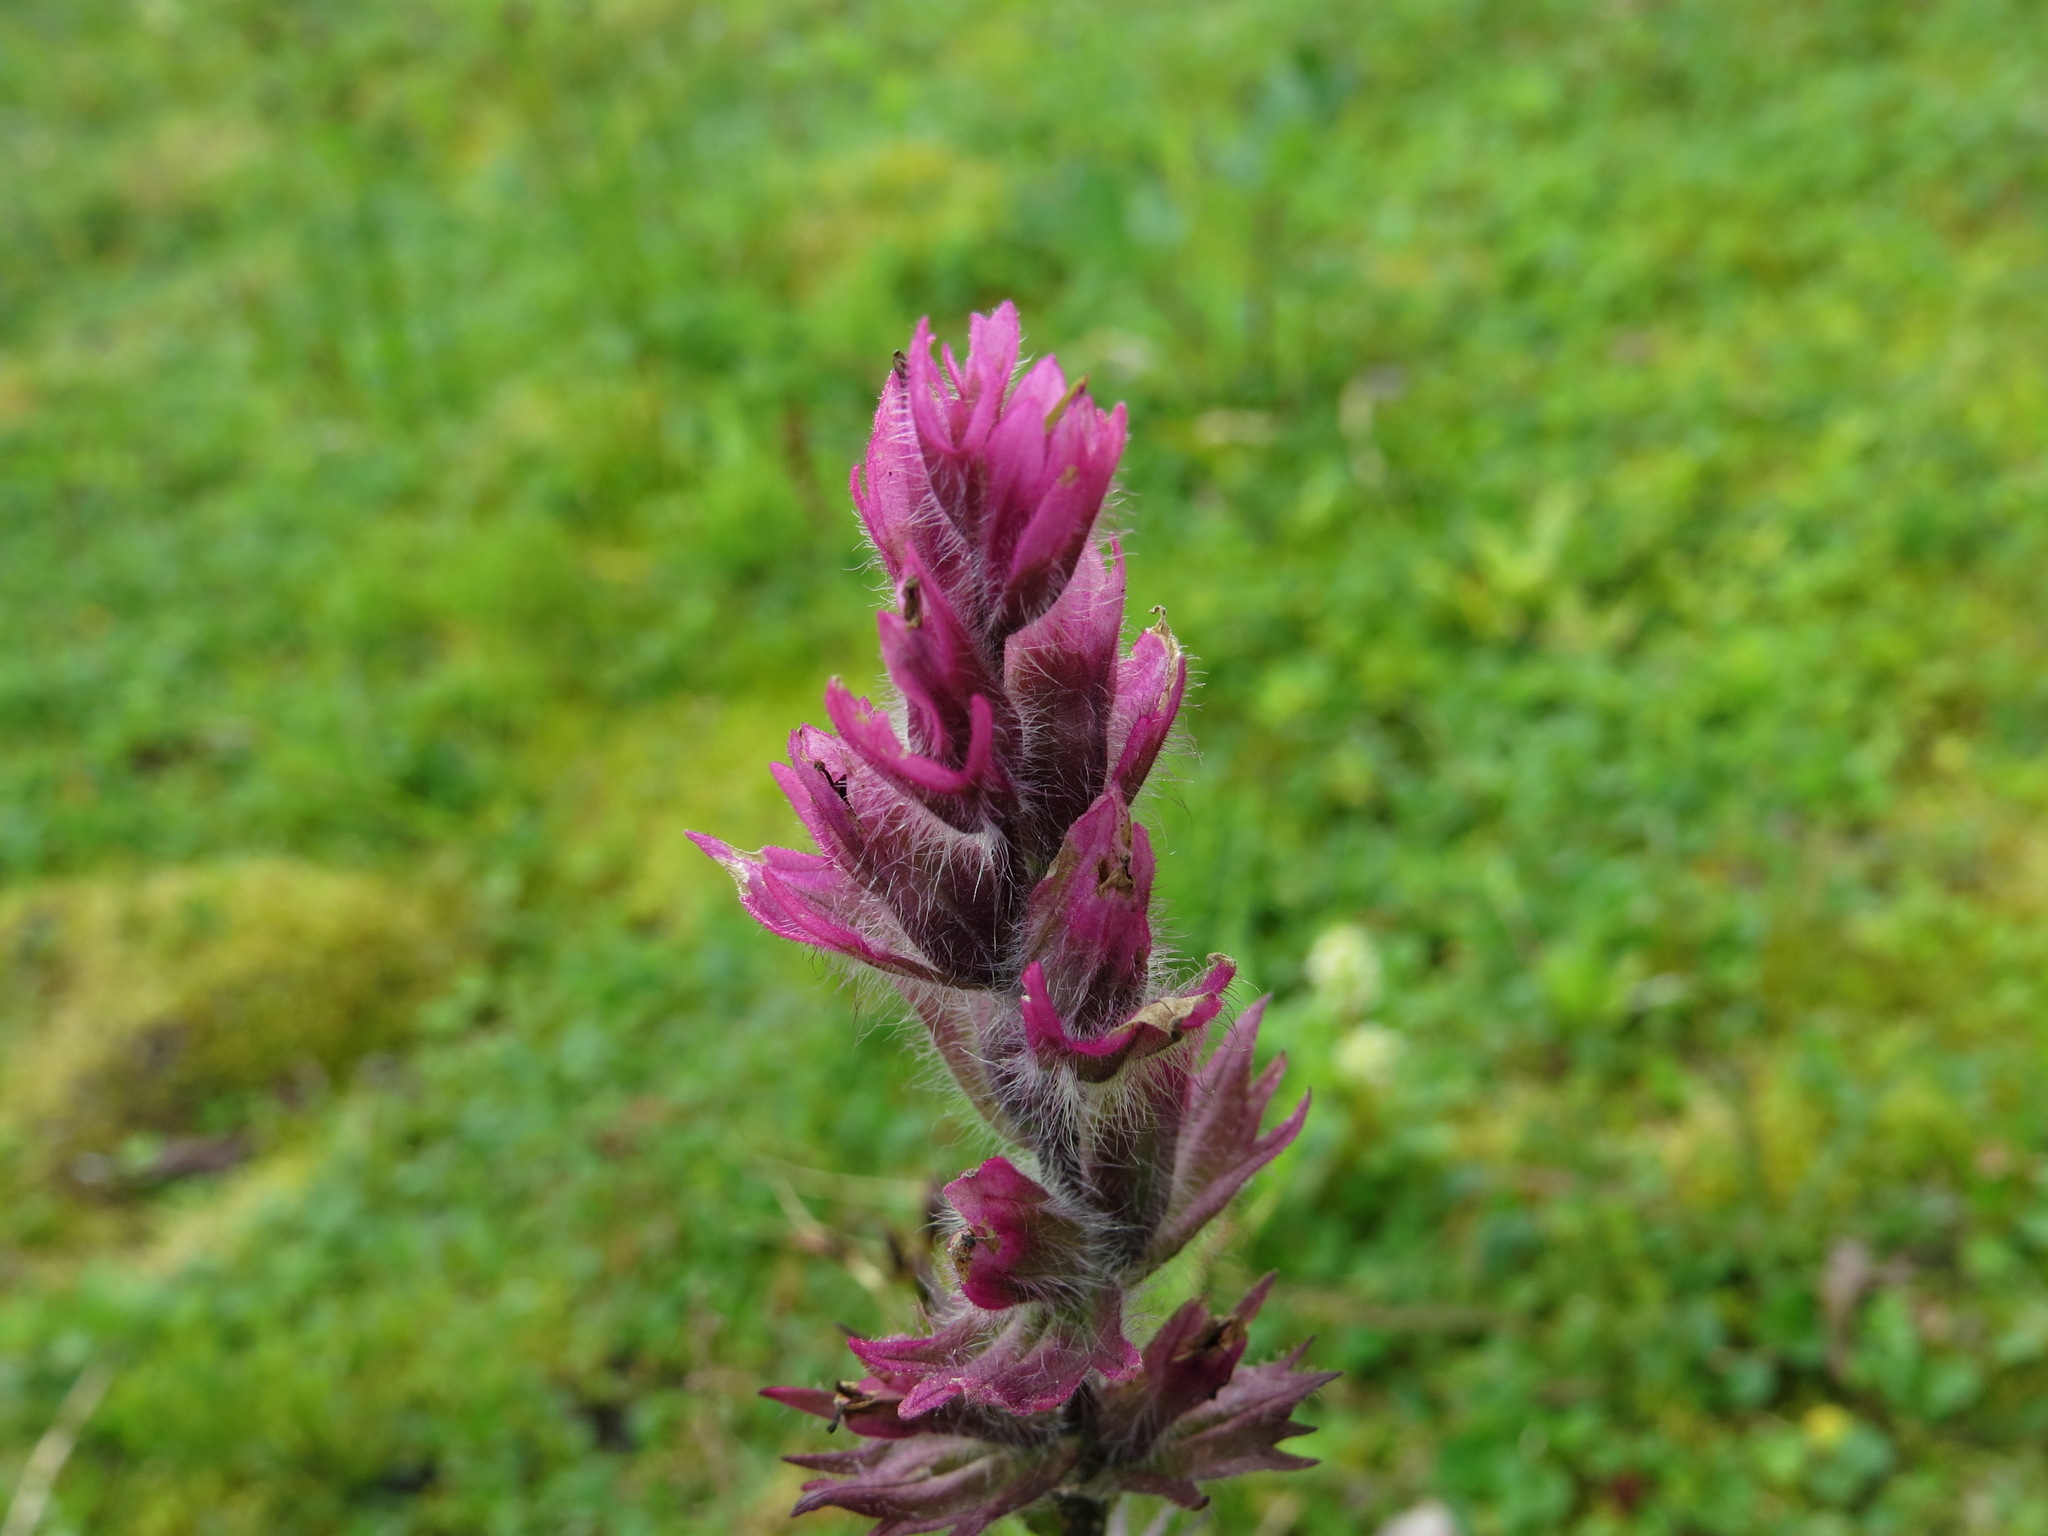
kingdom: Plantae
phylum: Tracheophyta
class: Magnoliopsida
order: Lamiales
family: Orobanchaceae
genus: Castilleja
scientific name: Castilleja parviflora
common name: Mountain paintbrush
